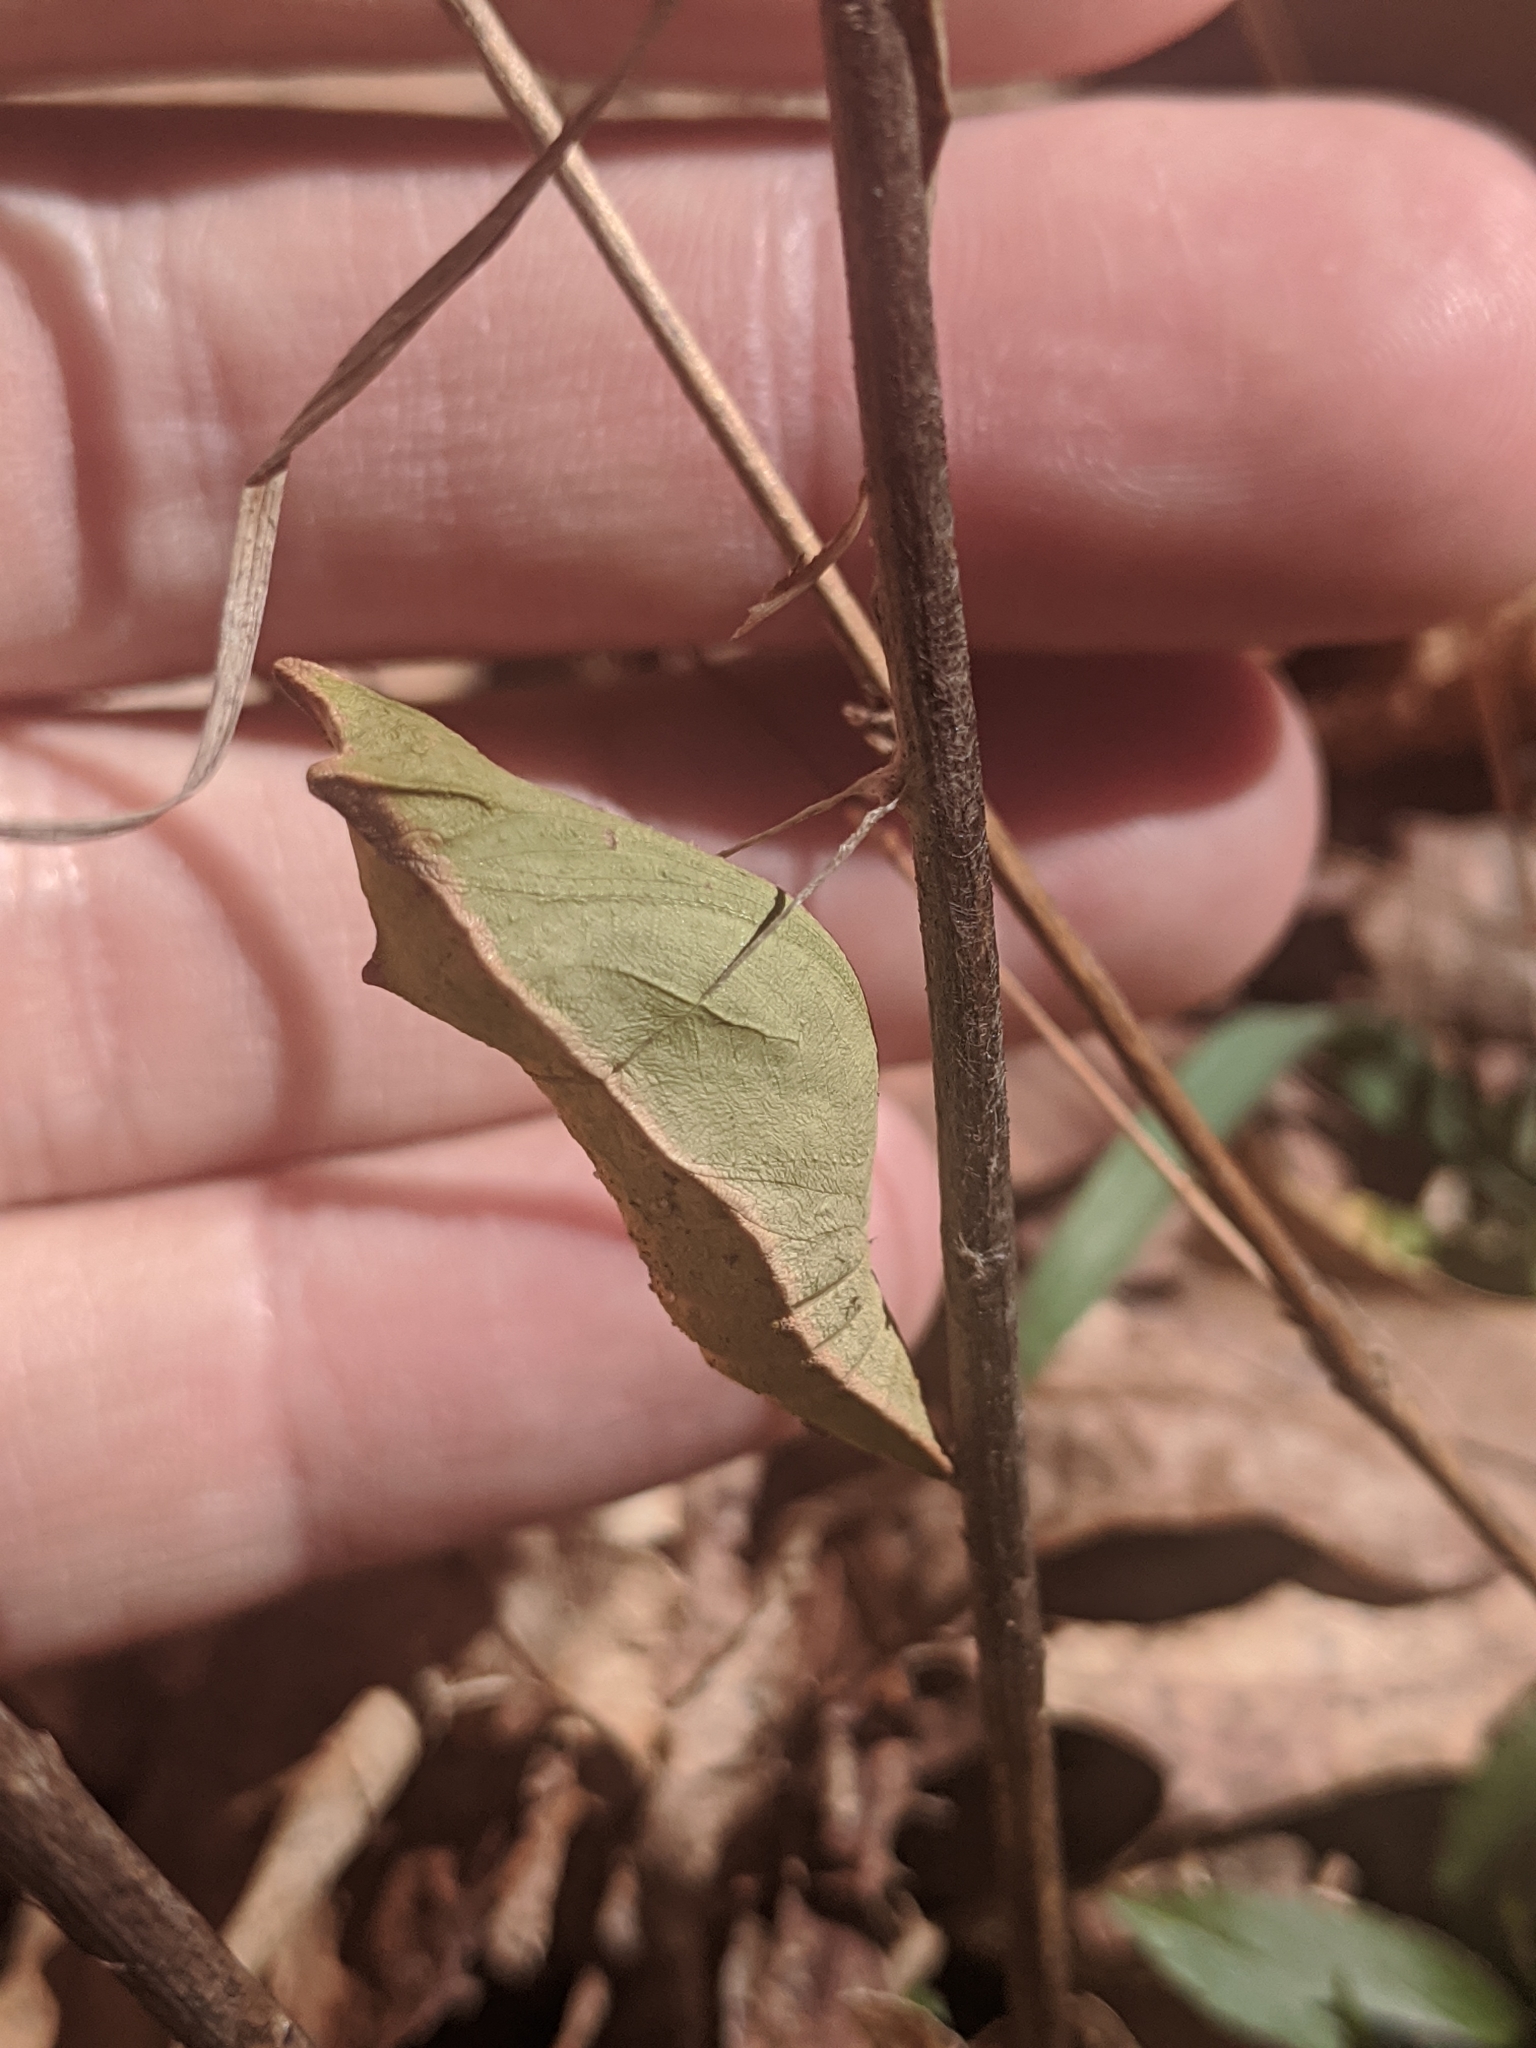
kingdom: Animalia
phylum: Arthropoda
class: Insecta
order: Lepidoptera
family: Papilionidae
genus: Papilio
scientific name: Papilio troilus
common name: Spicebush swallowtail
